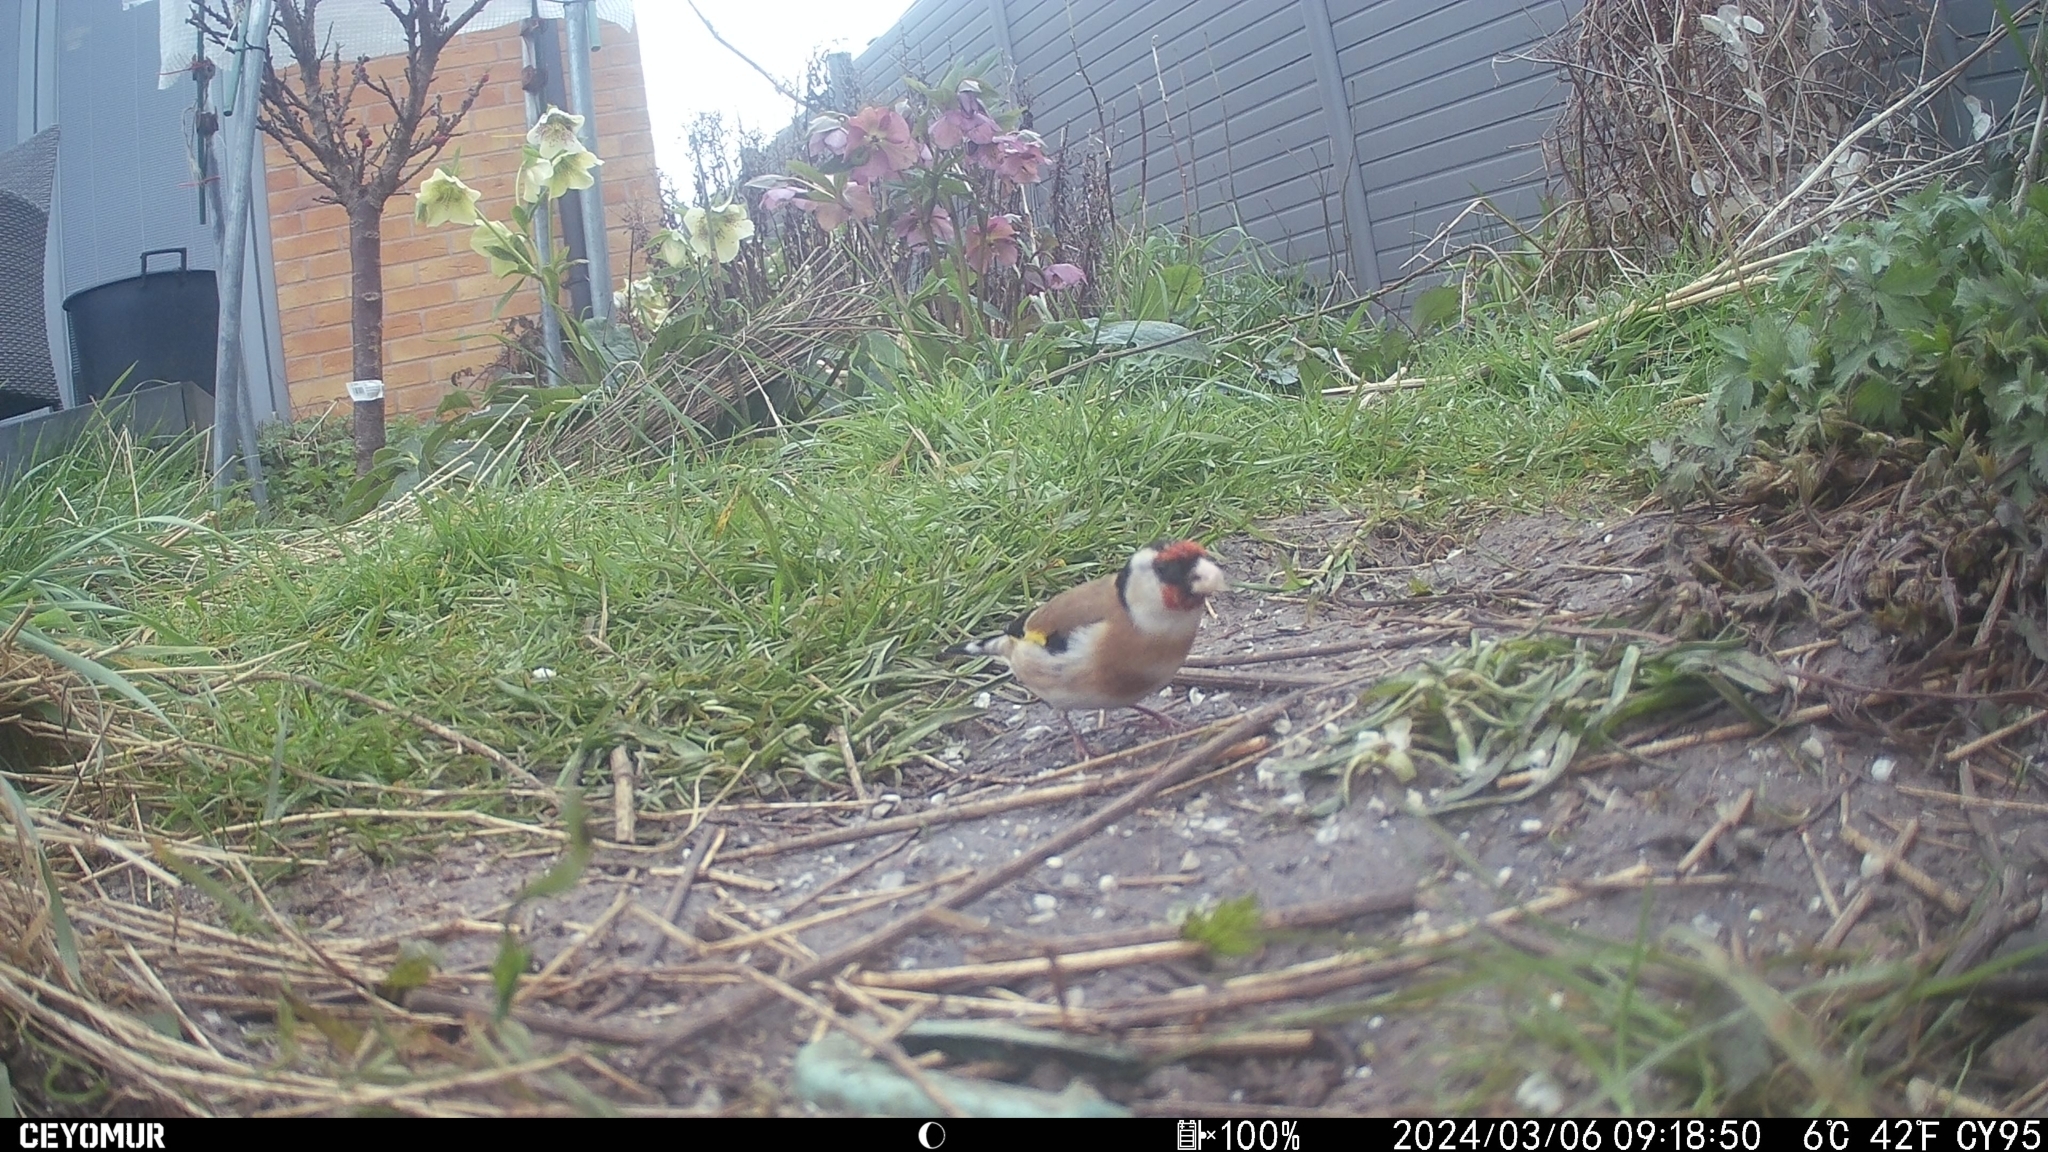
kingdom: Animalia
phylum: Chordata
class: Aves
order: Passeriformes
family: Fringillidae
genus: Carduelis
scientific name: Carduelis carduelis
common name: European goldfinch
